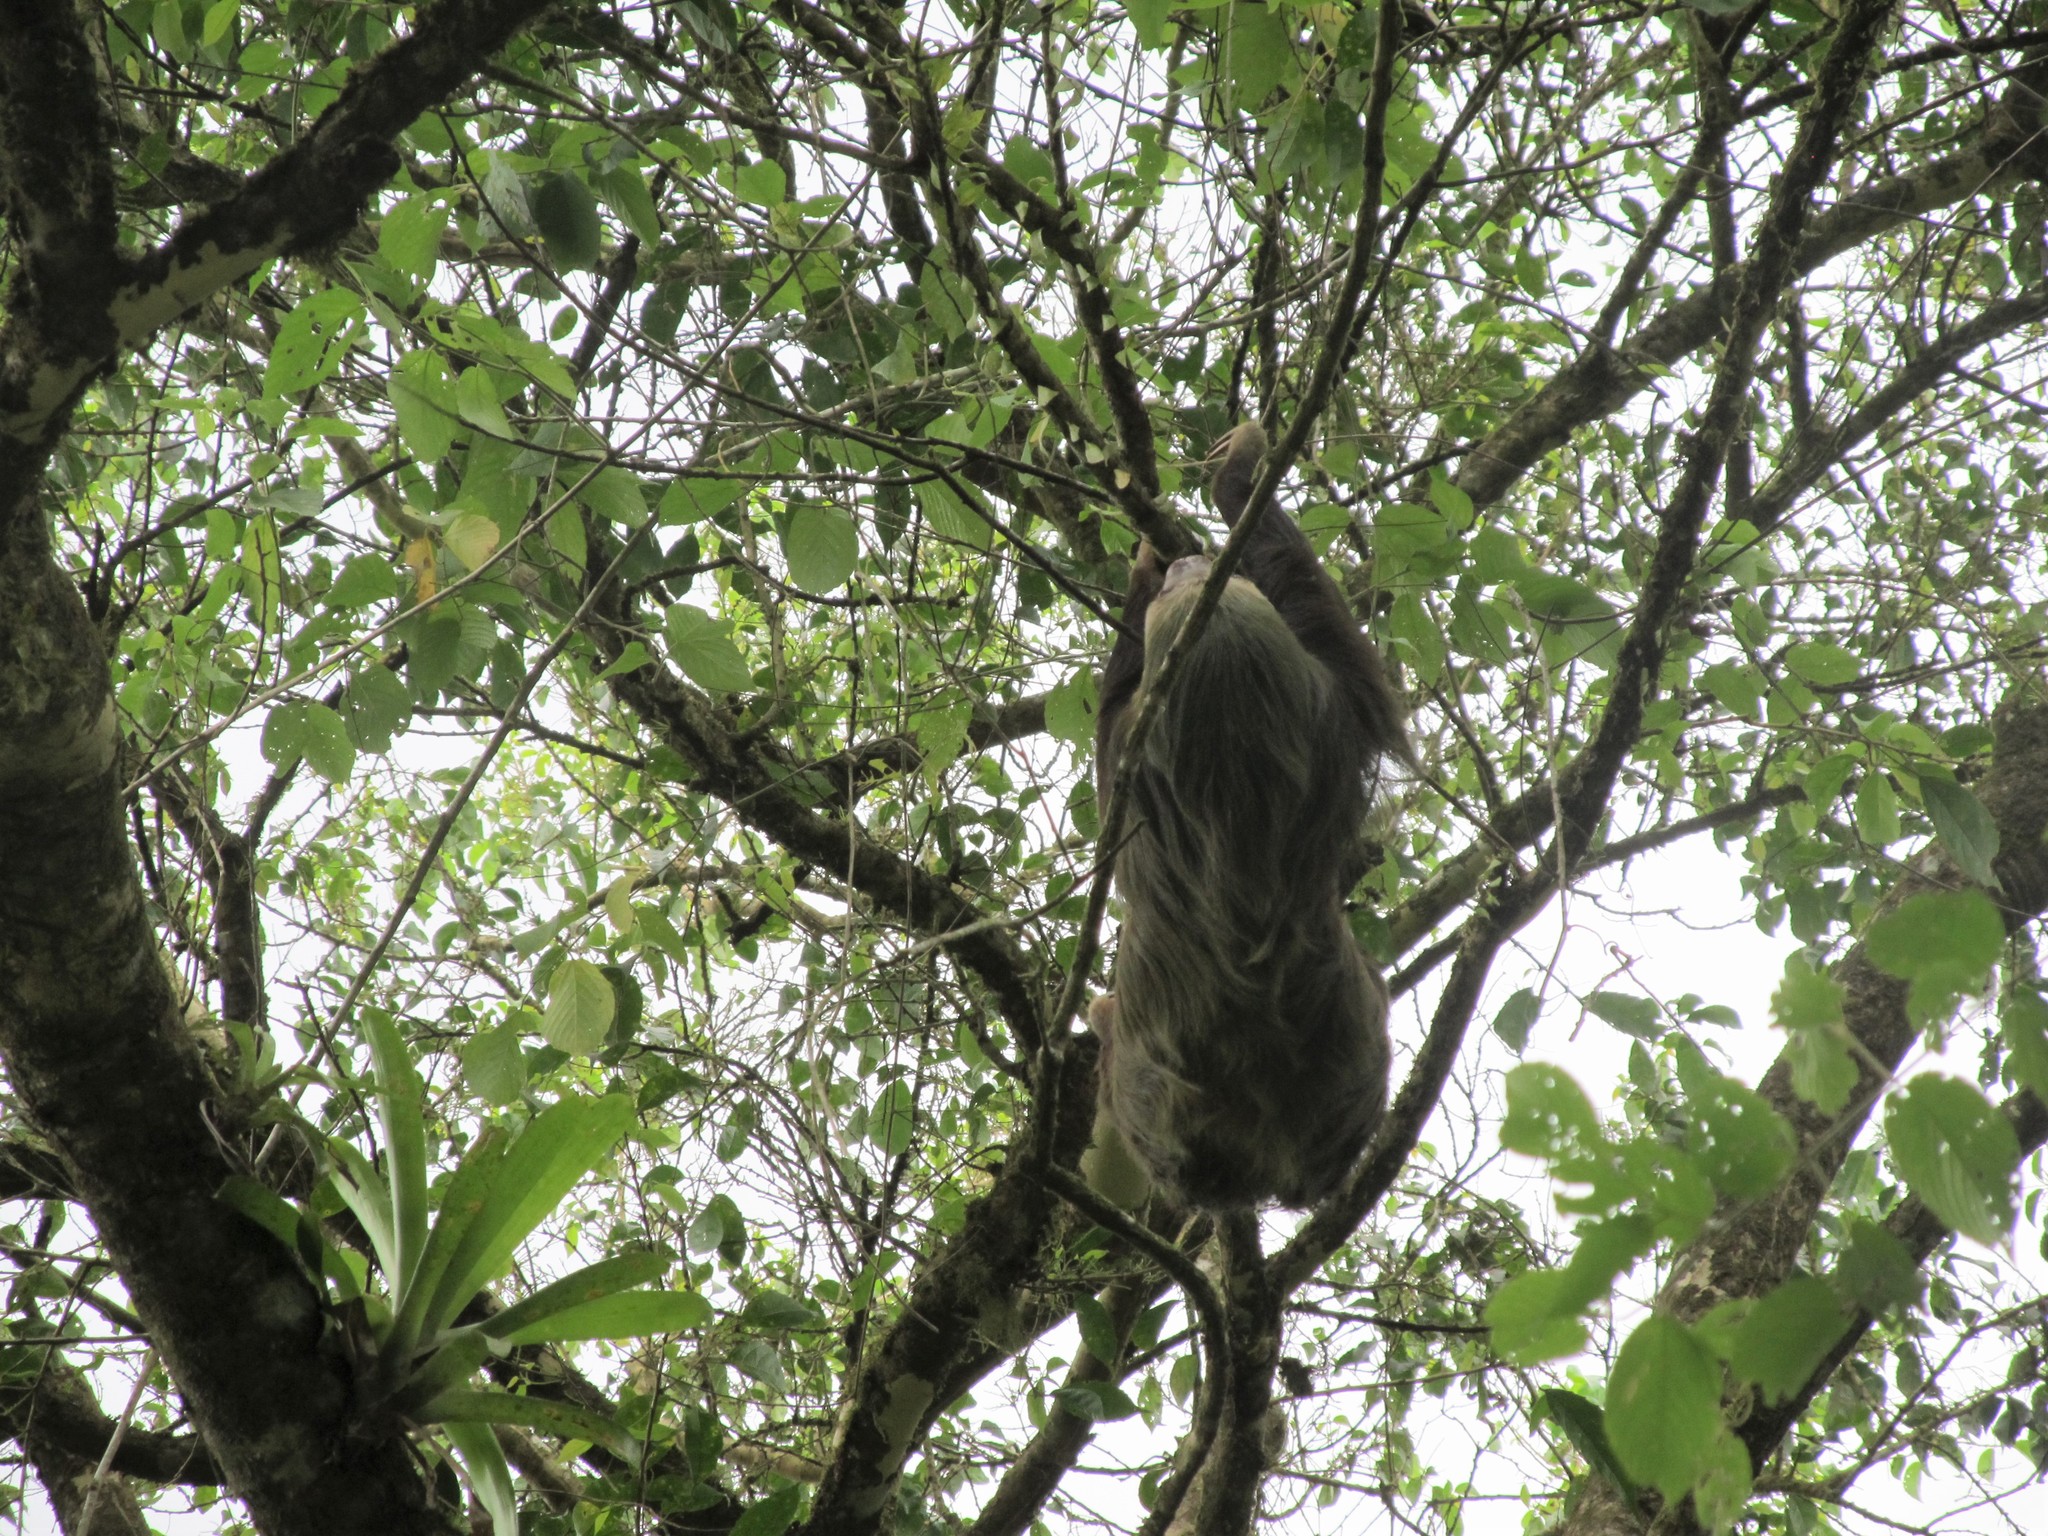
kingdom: Animalia
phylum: Chordata
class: Mammalia
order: Pilosa
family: Megalonychidae
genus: Choloepus
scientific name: Choloepus hoffmanni
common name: Hoffmann's two-toed sloth
